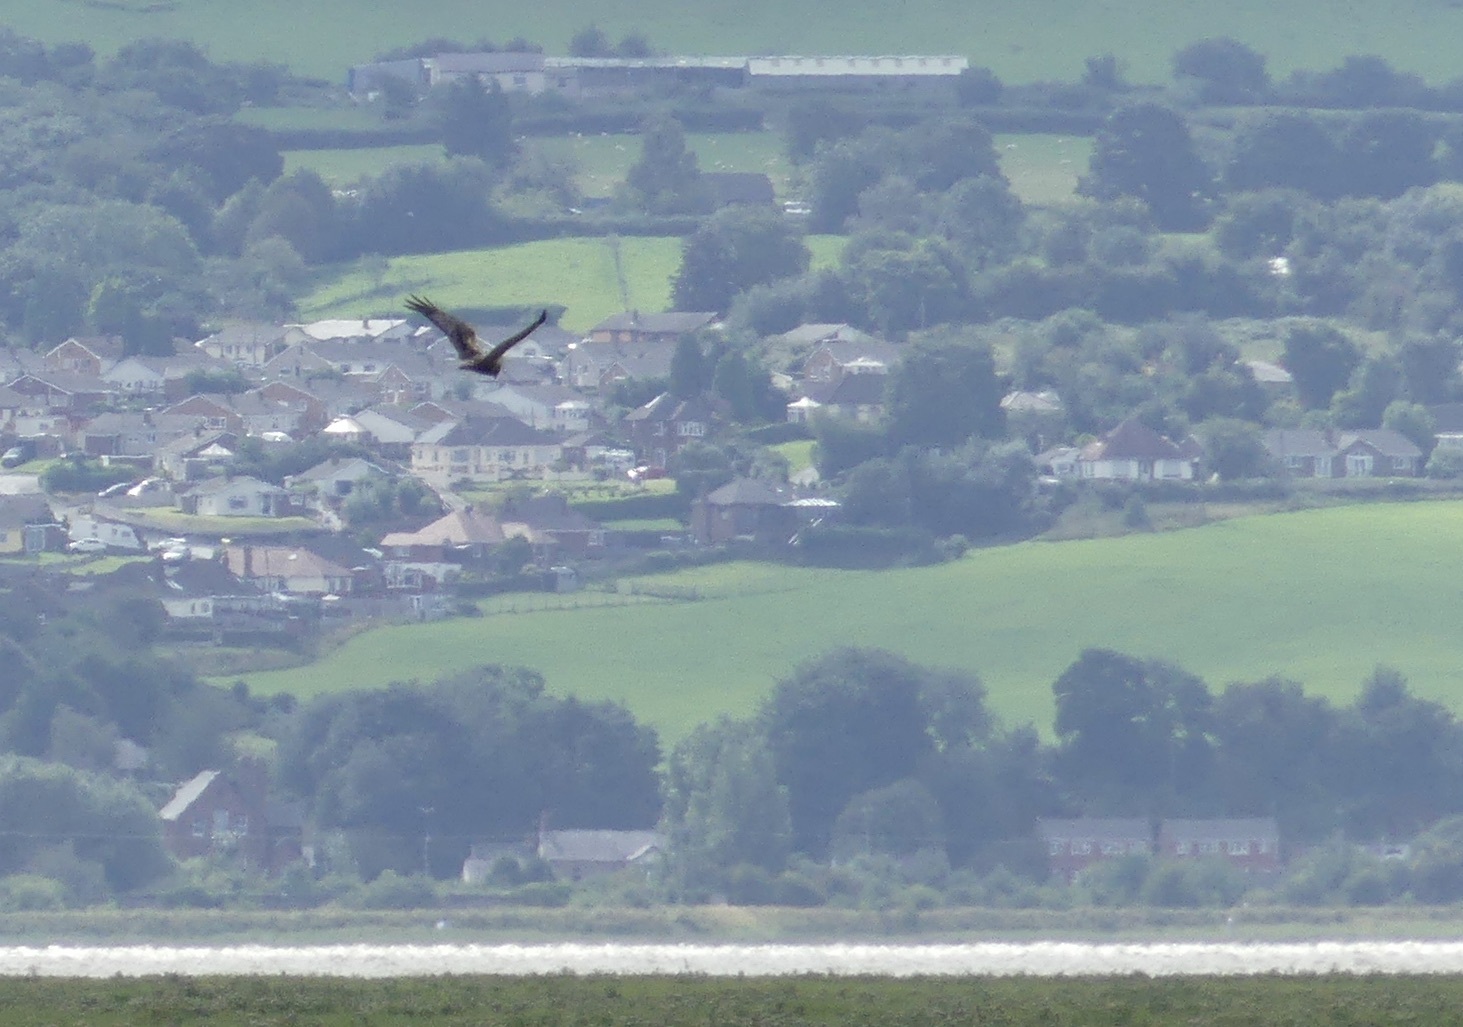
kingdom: Animalia
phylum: Chordata
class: Aves
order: Accipitriformes
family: Accipitridae
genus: Circus
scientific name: Circus aeruginosus
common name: Western marsh harrier
